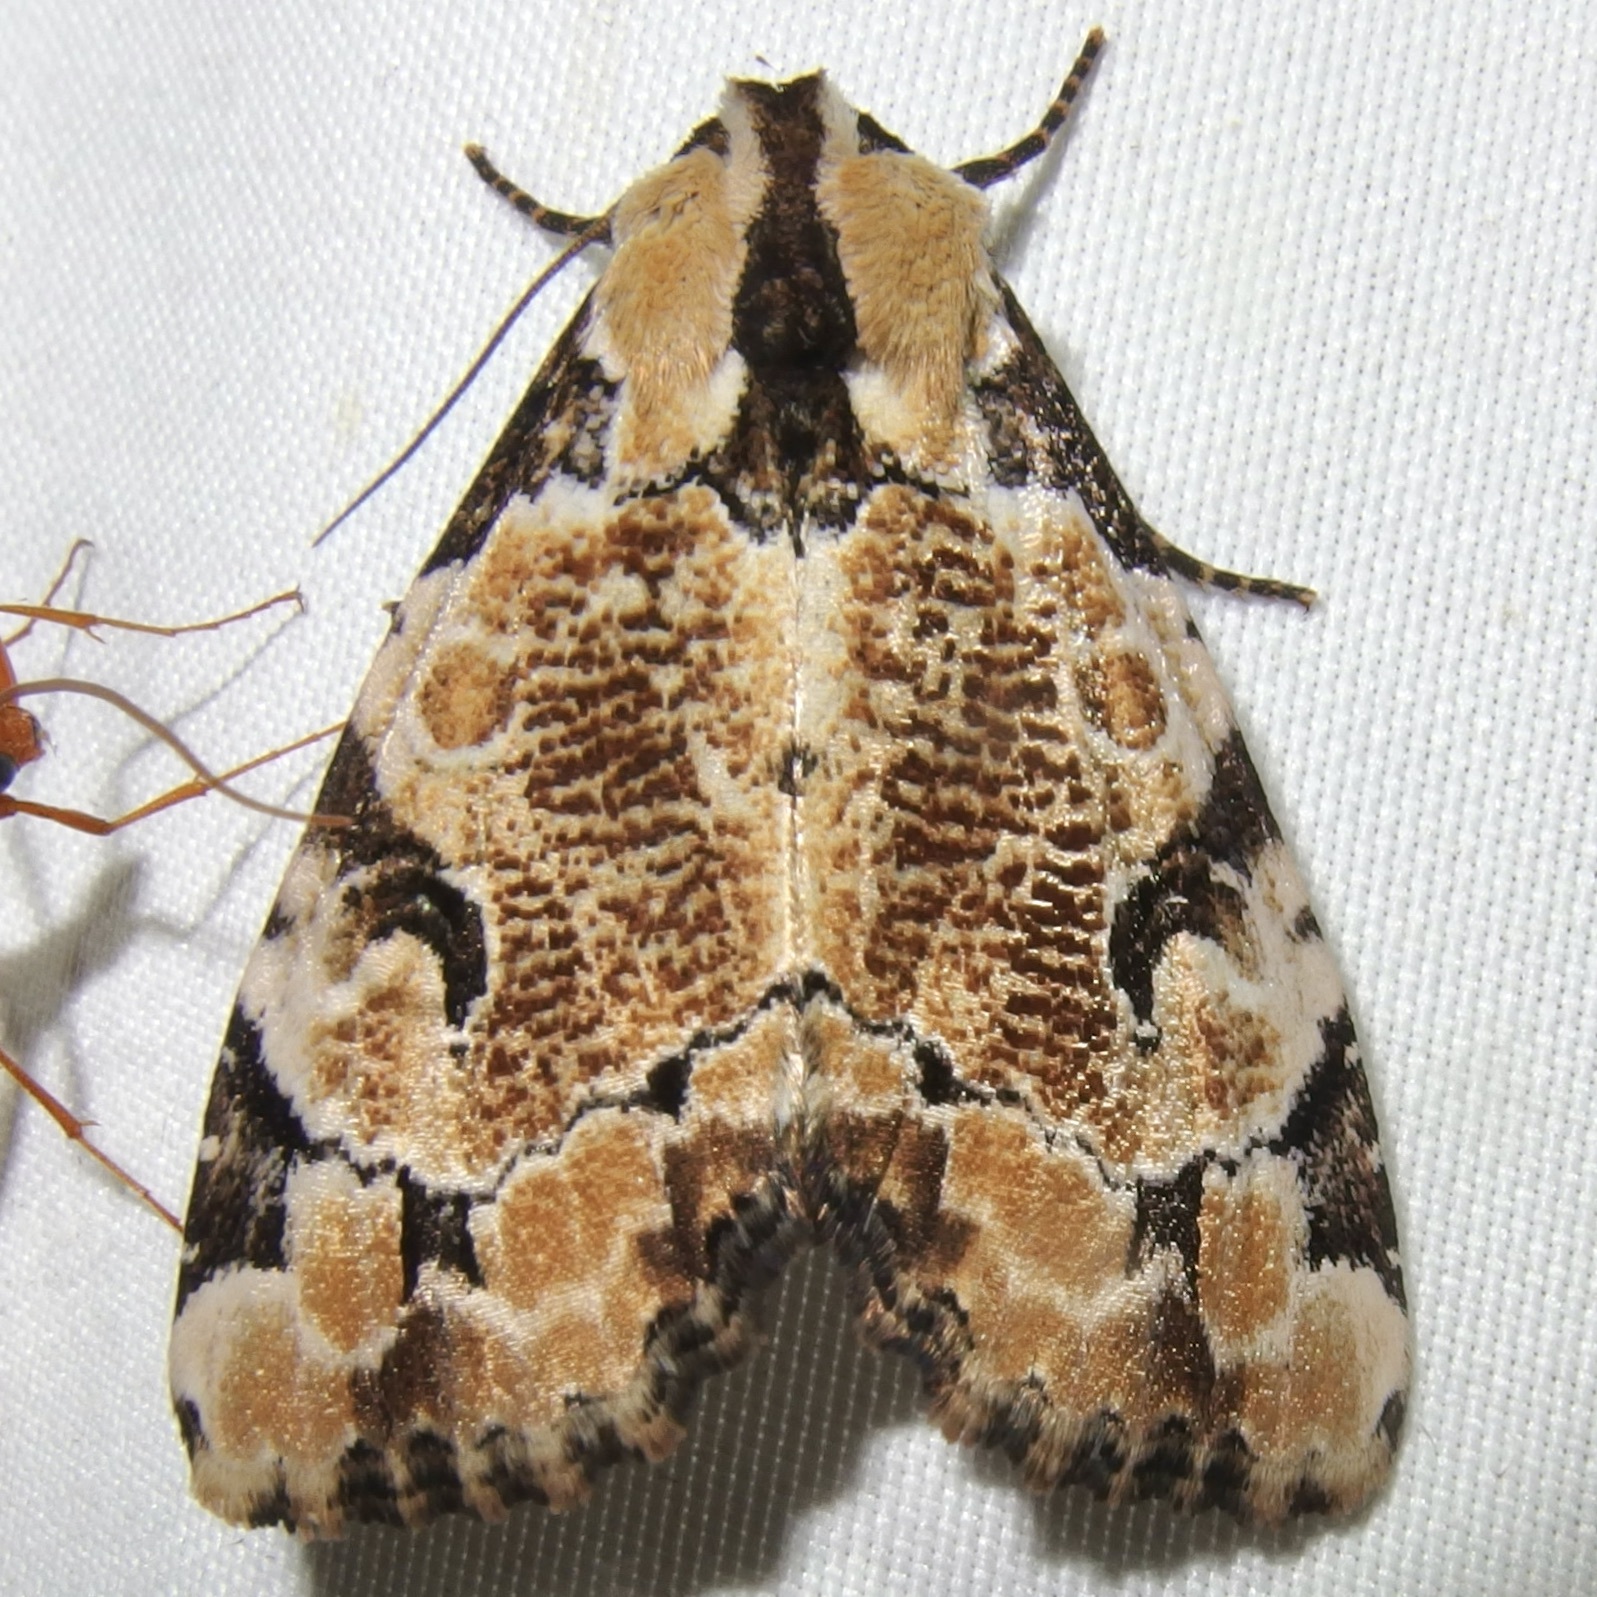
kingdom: Animalia
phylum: Arthropoda
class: Insecta
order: Lepidoptera
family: Noctuidae
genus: Stibaera
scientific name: Stibaera thyatiroides
